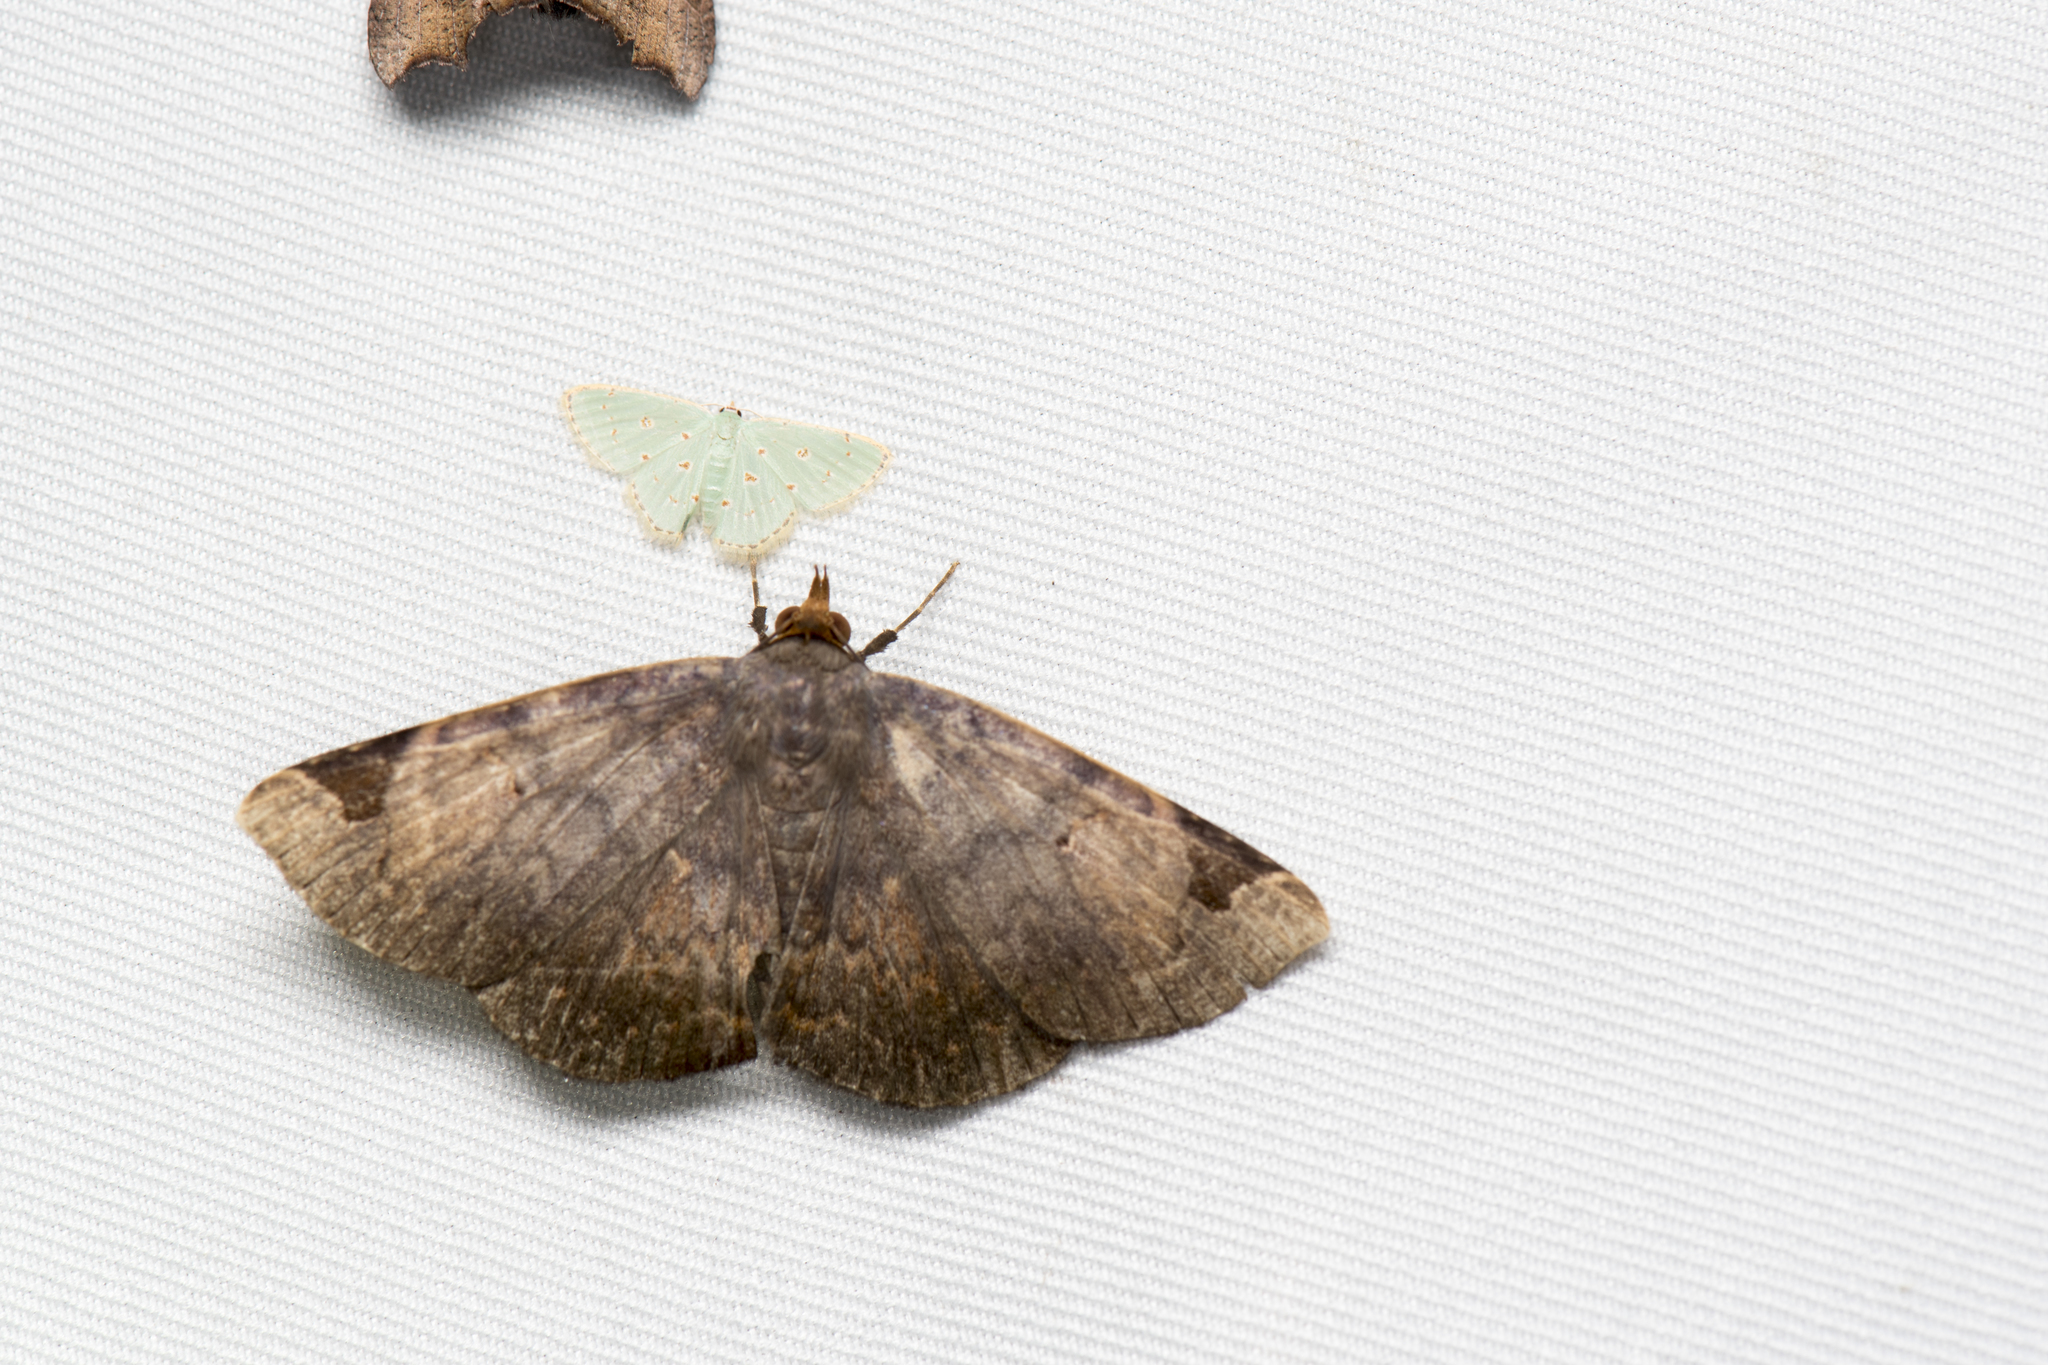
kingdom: Animalia
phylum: Arthropoda
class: Insecta
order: Lepidoptera
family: Erebidae
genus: Mecodina
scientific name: Mecodina praecipua
